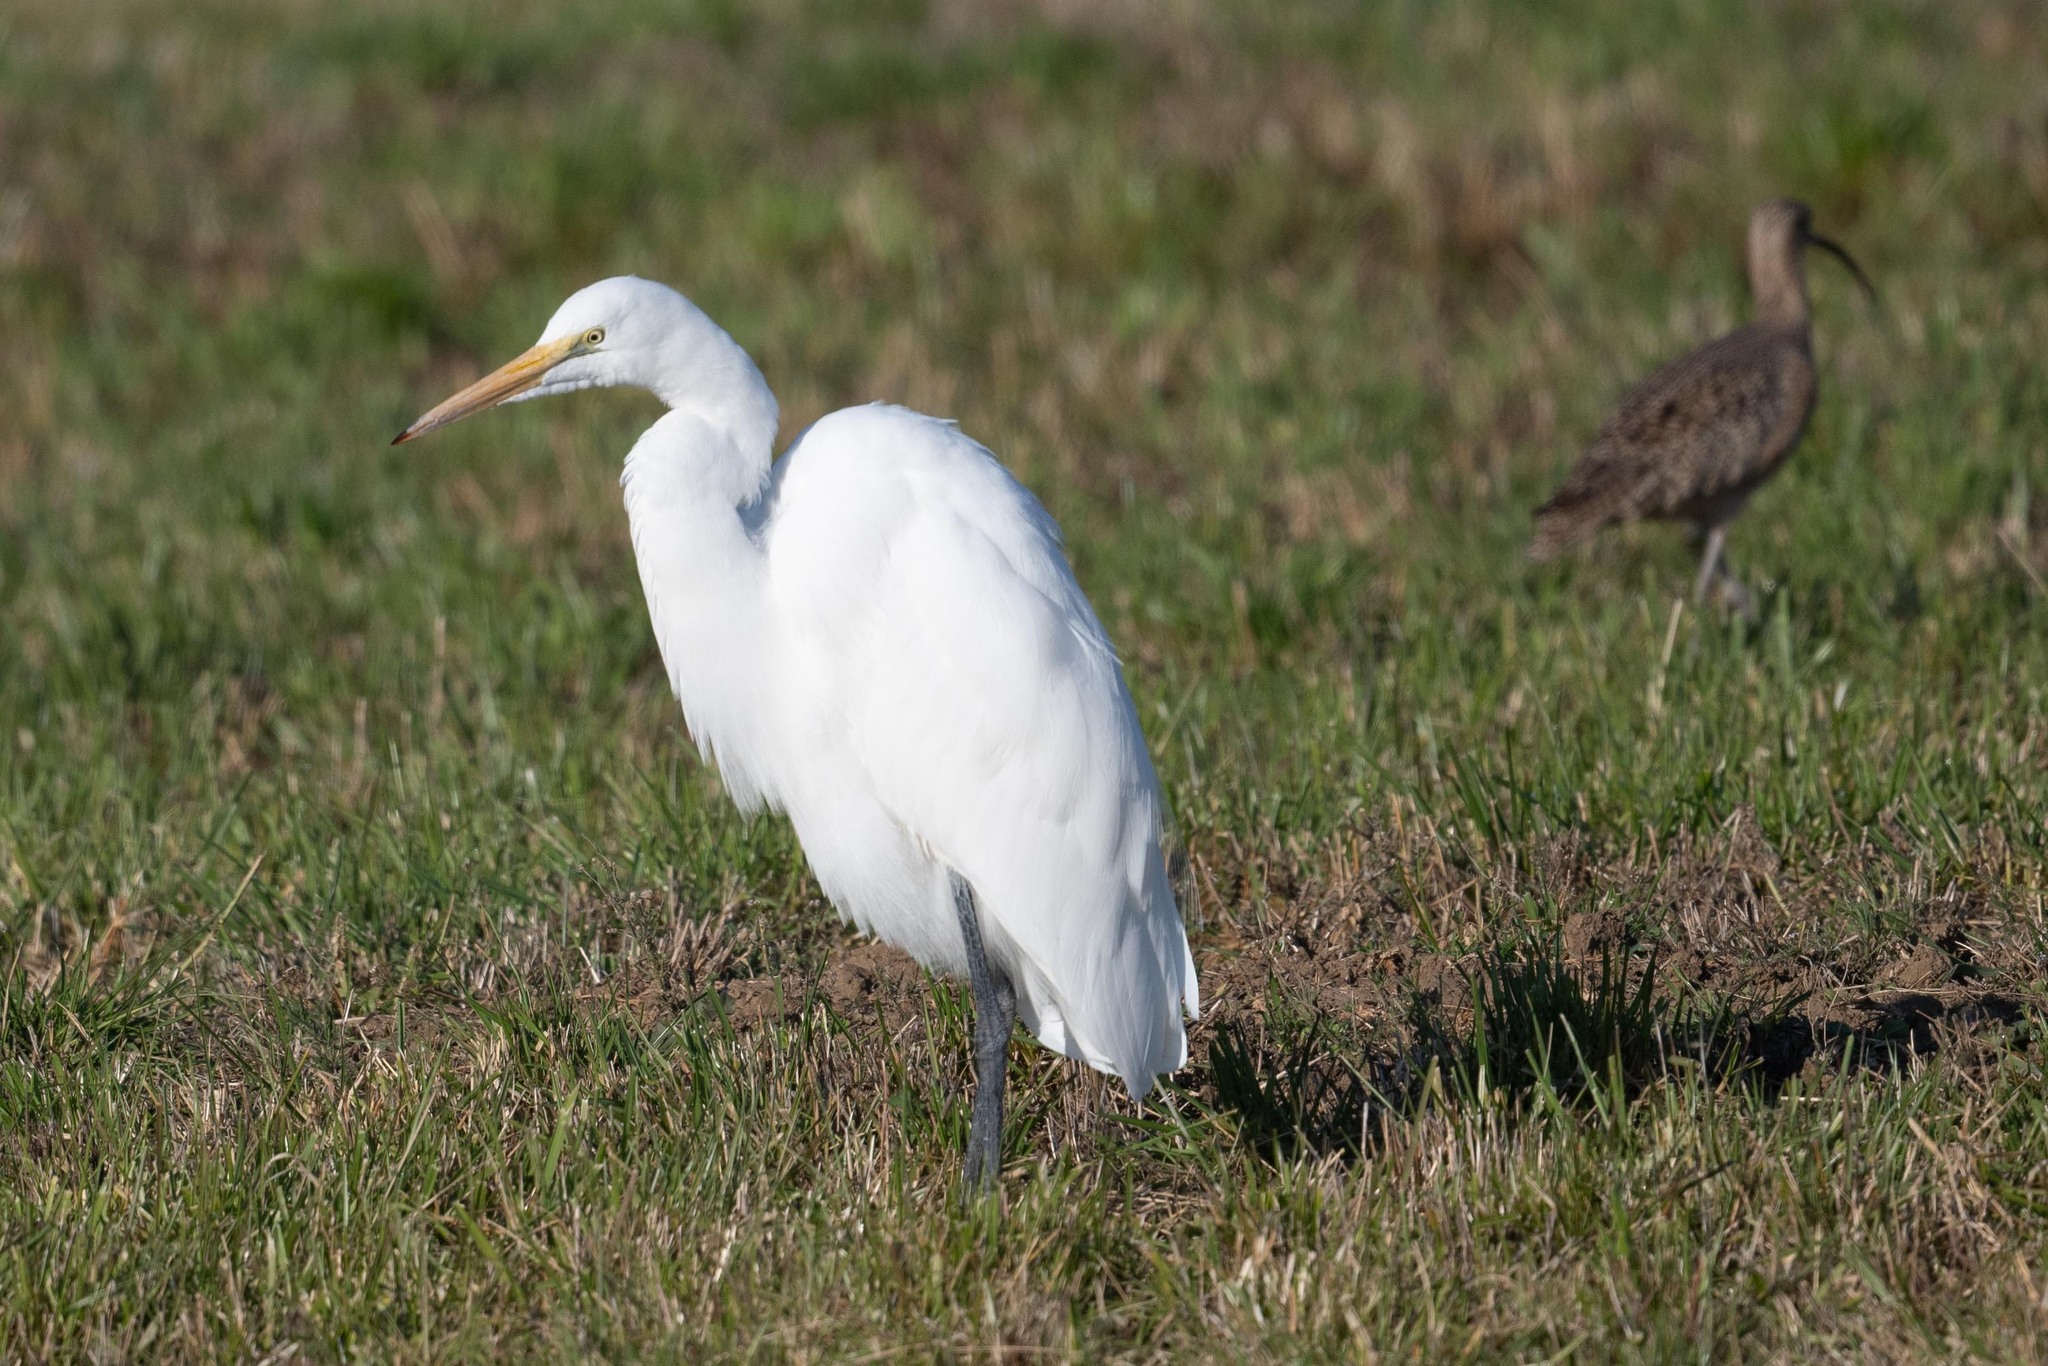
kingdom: Animalia
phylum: Chordata
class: Aves
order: Pelecaniformes
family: Ardeidae
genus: Ardea
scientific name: Ardea alba
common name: Great egret
